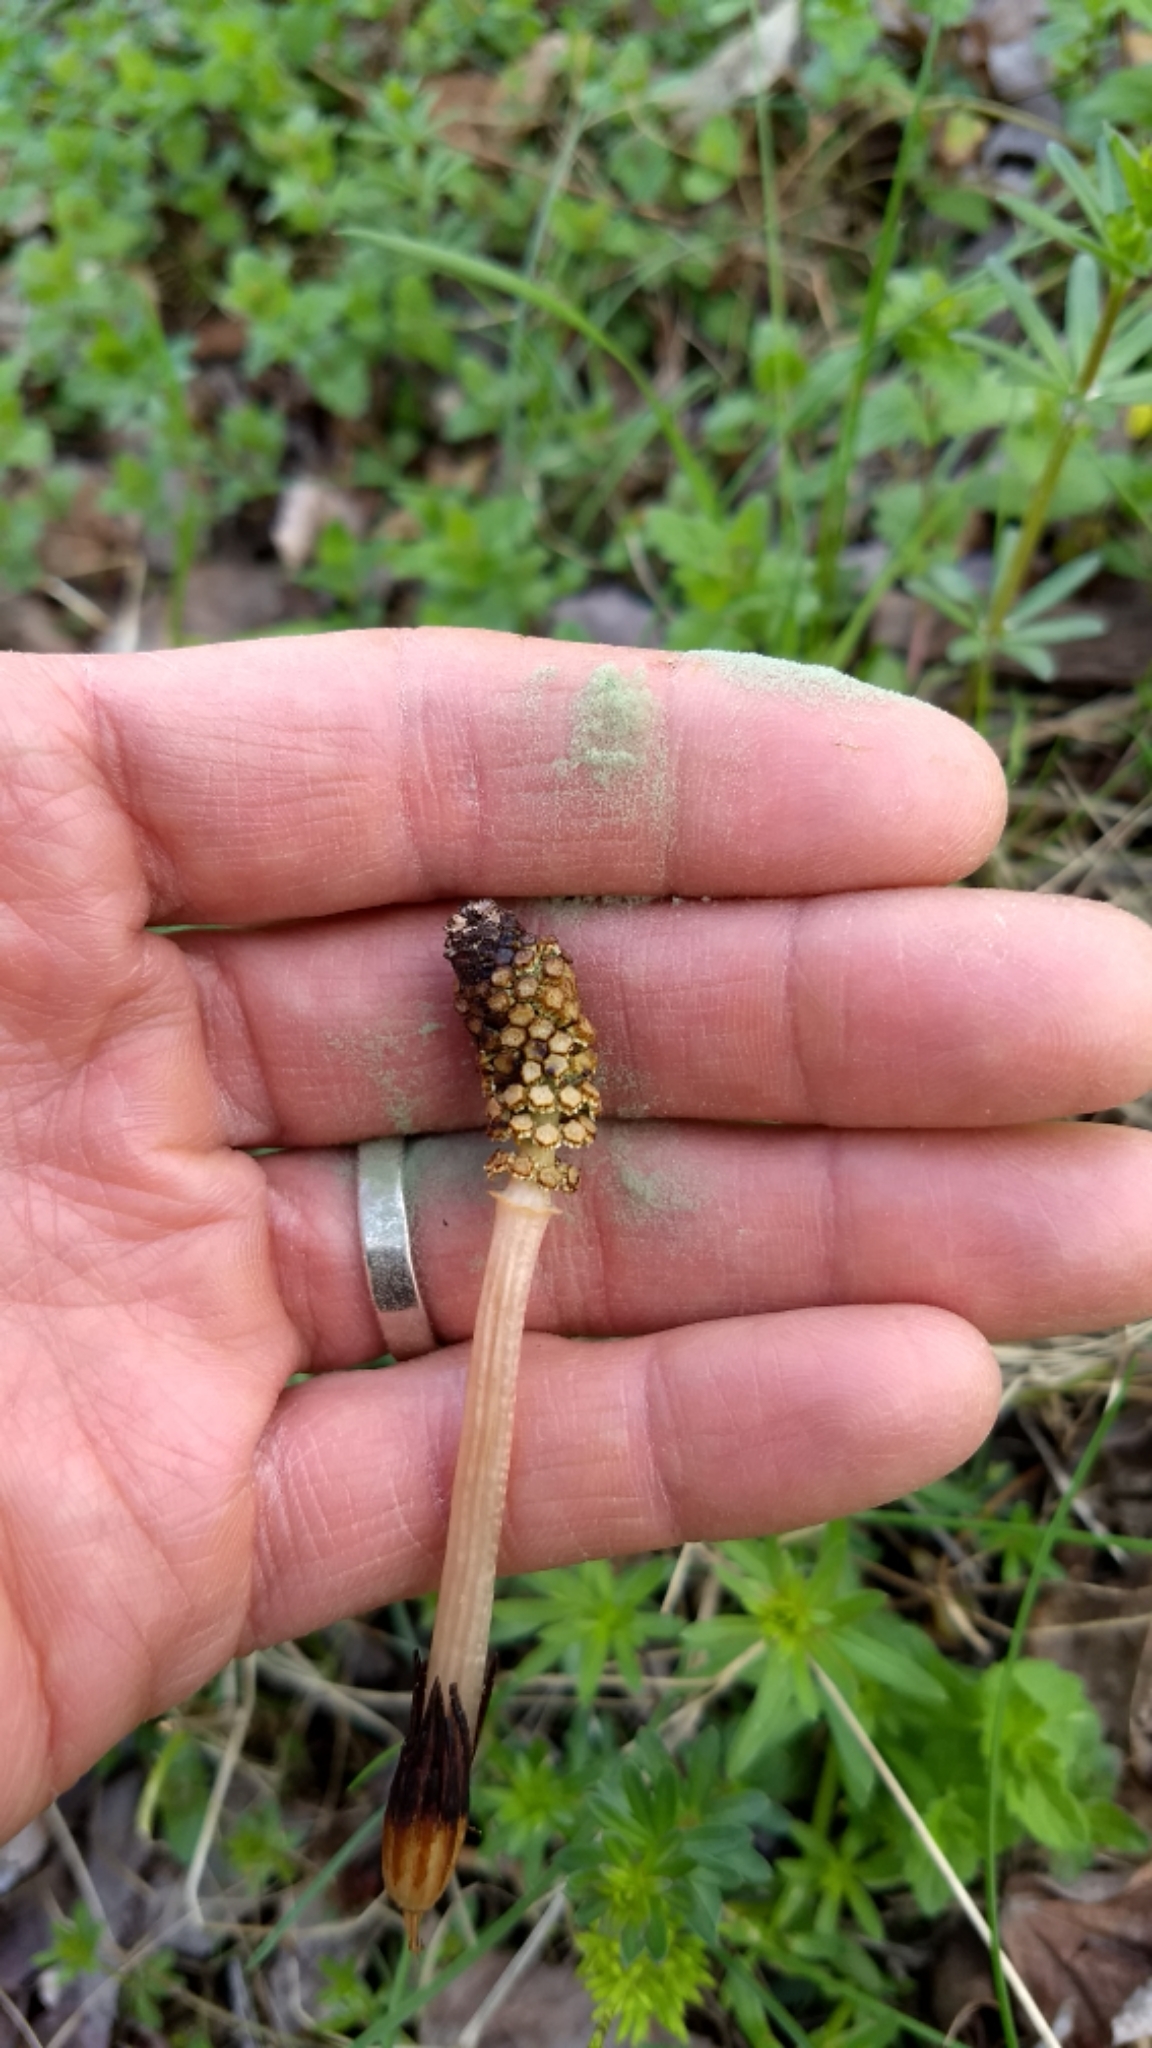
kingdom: Plantae
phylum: Tracheophyta
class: Polypodiopsida
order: Equisetales
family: Equisetaceae
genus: Equisetum
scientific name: Equisetum arvense
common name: Field horsetail
